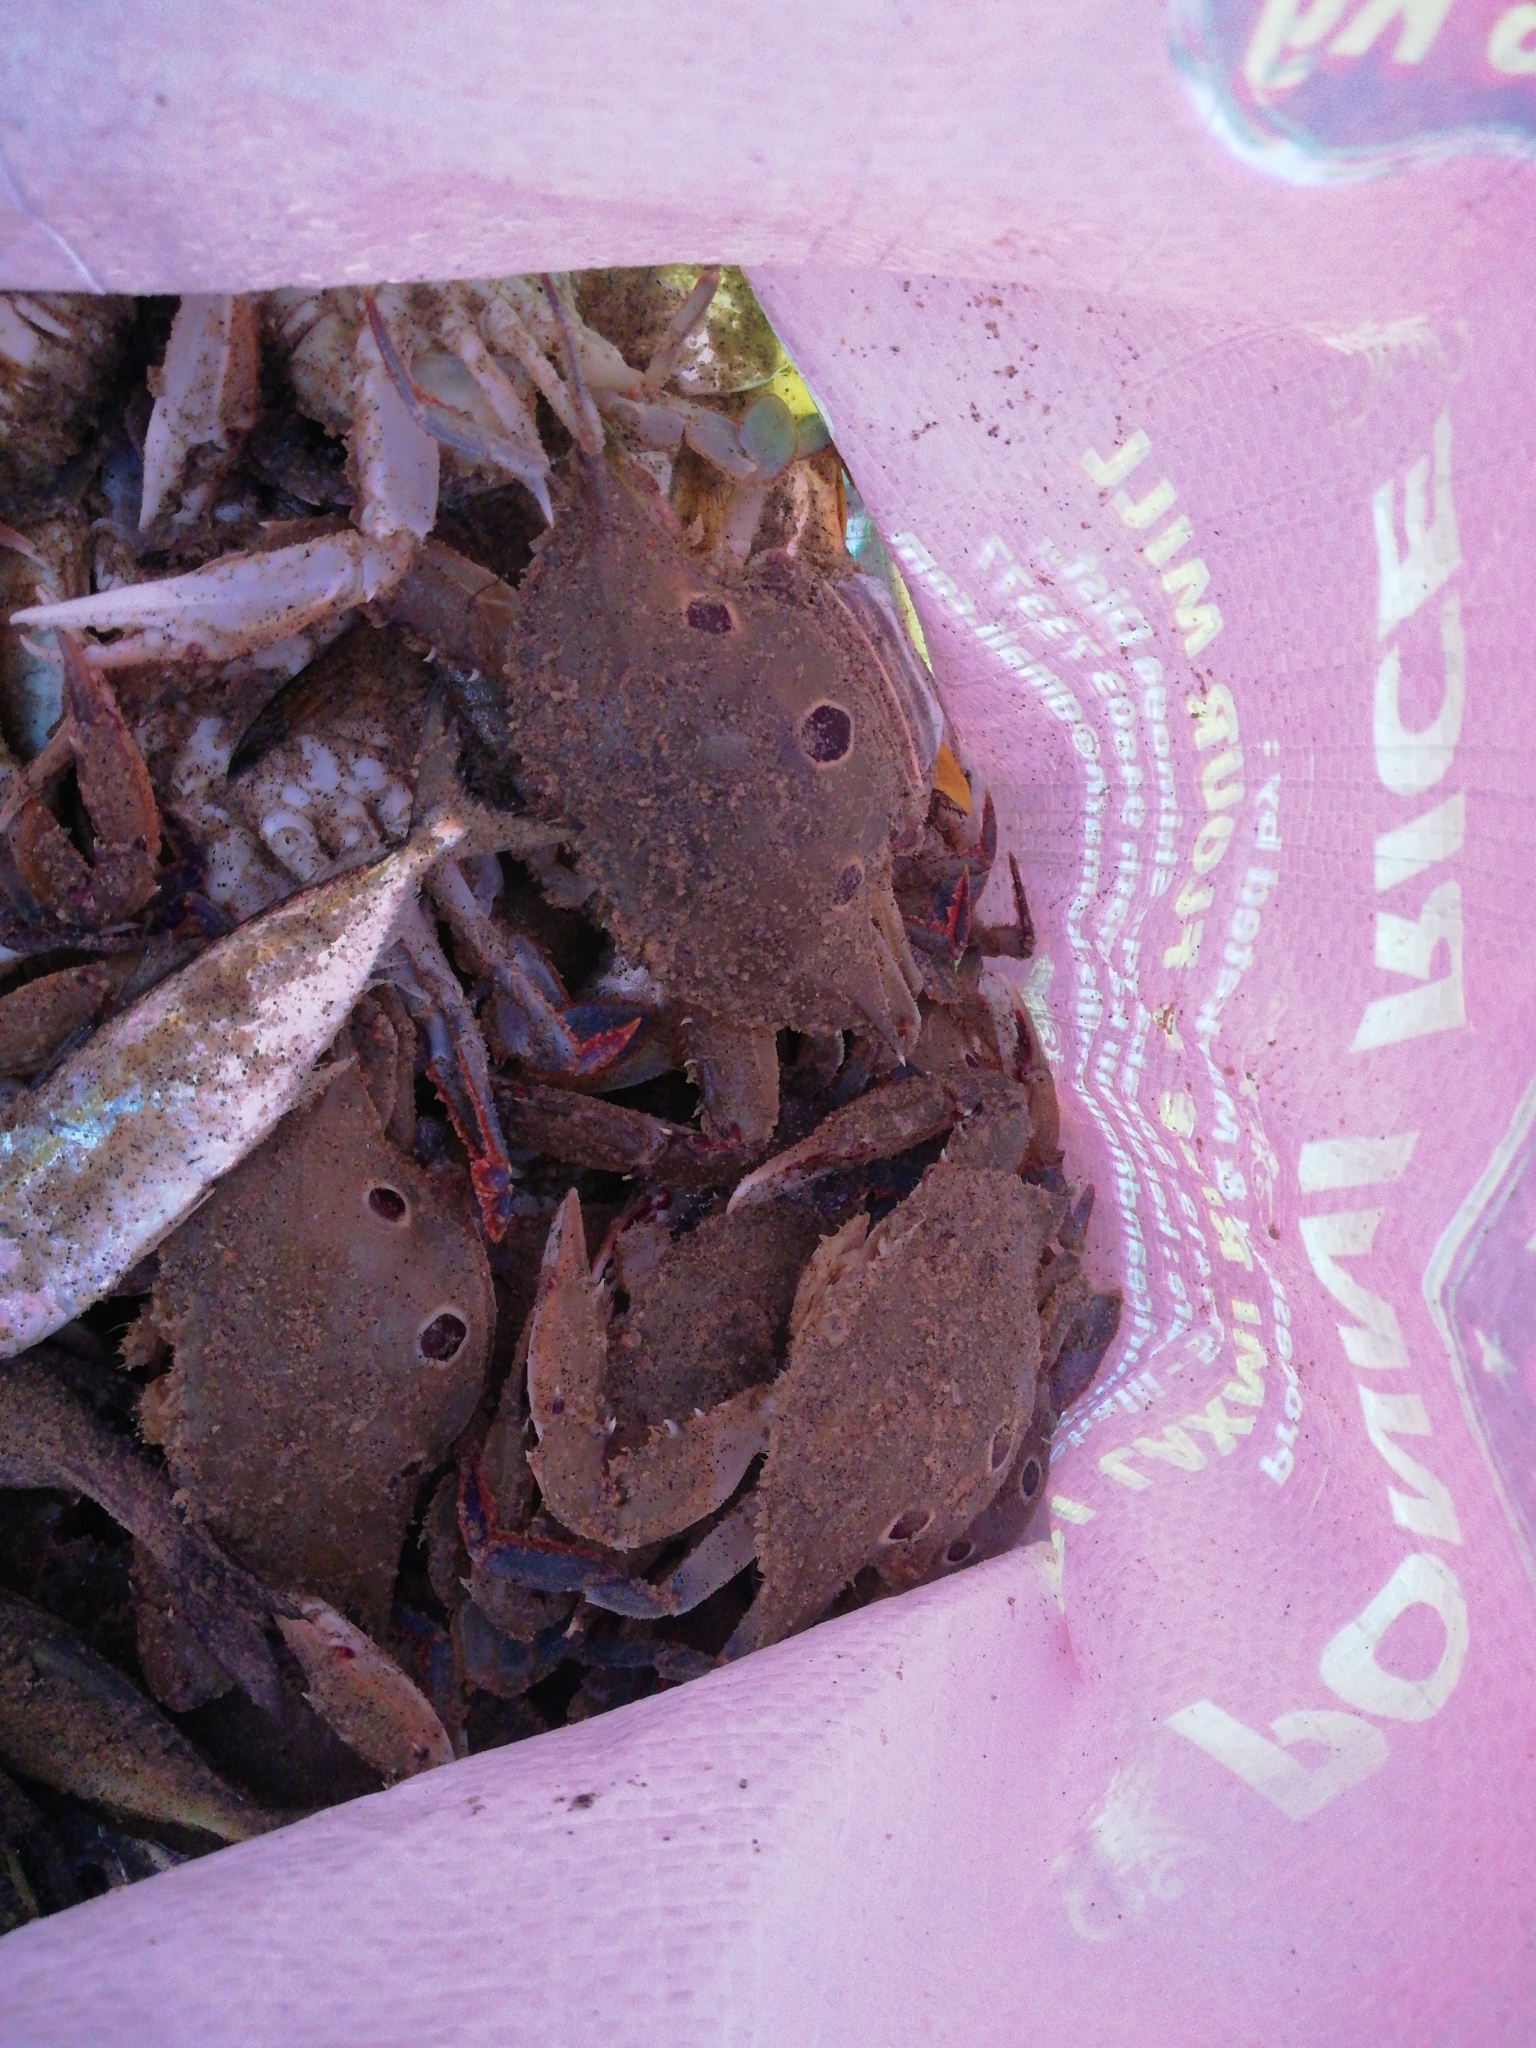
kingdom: Animalia
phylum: Arthropoda
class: Malacostraca
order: Decapoda
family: Portunidae
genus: Portunus
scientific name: Portunus sanguinolentus
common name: Blood-spotted swimming crab
